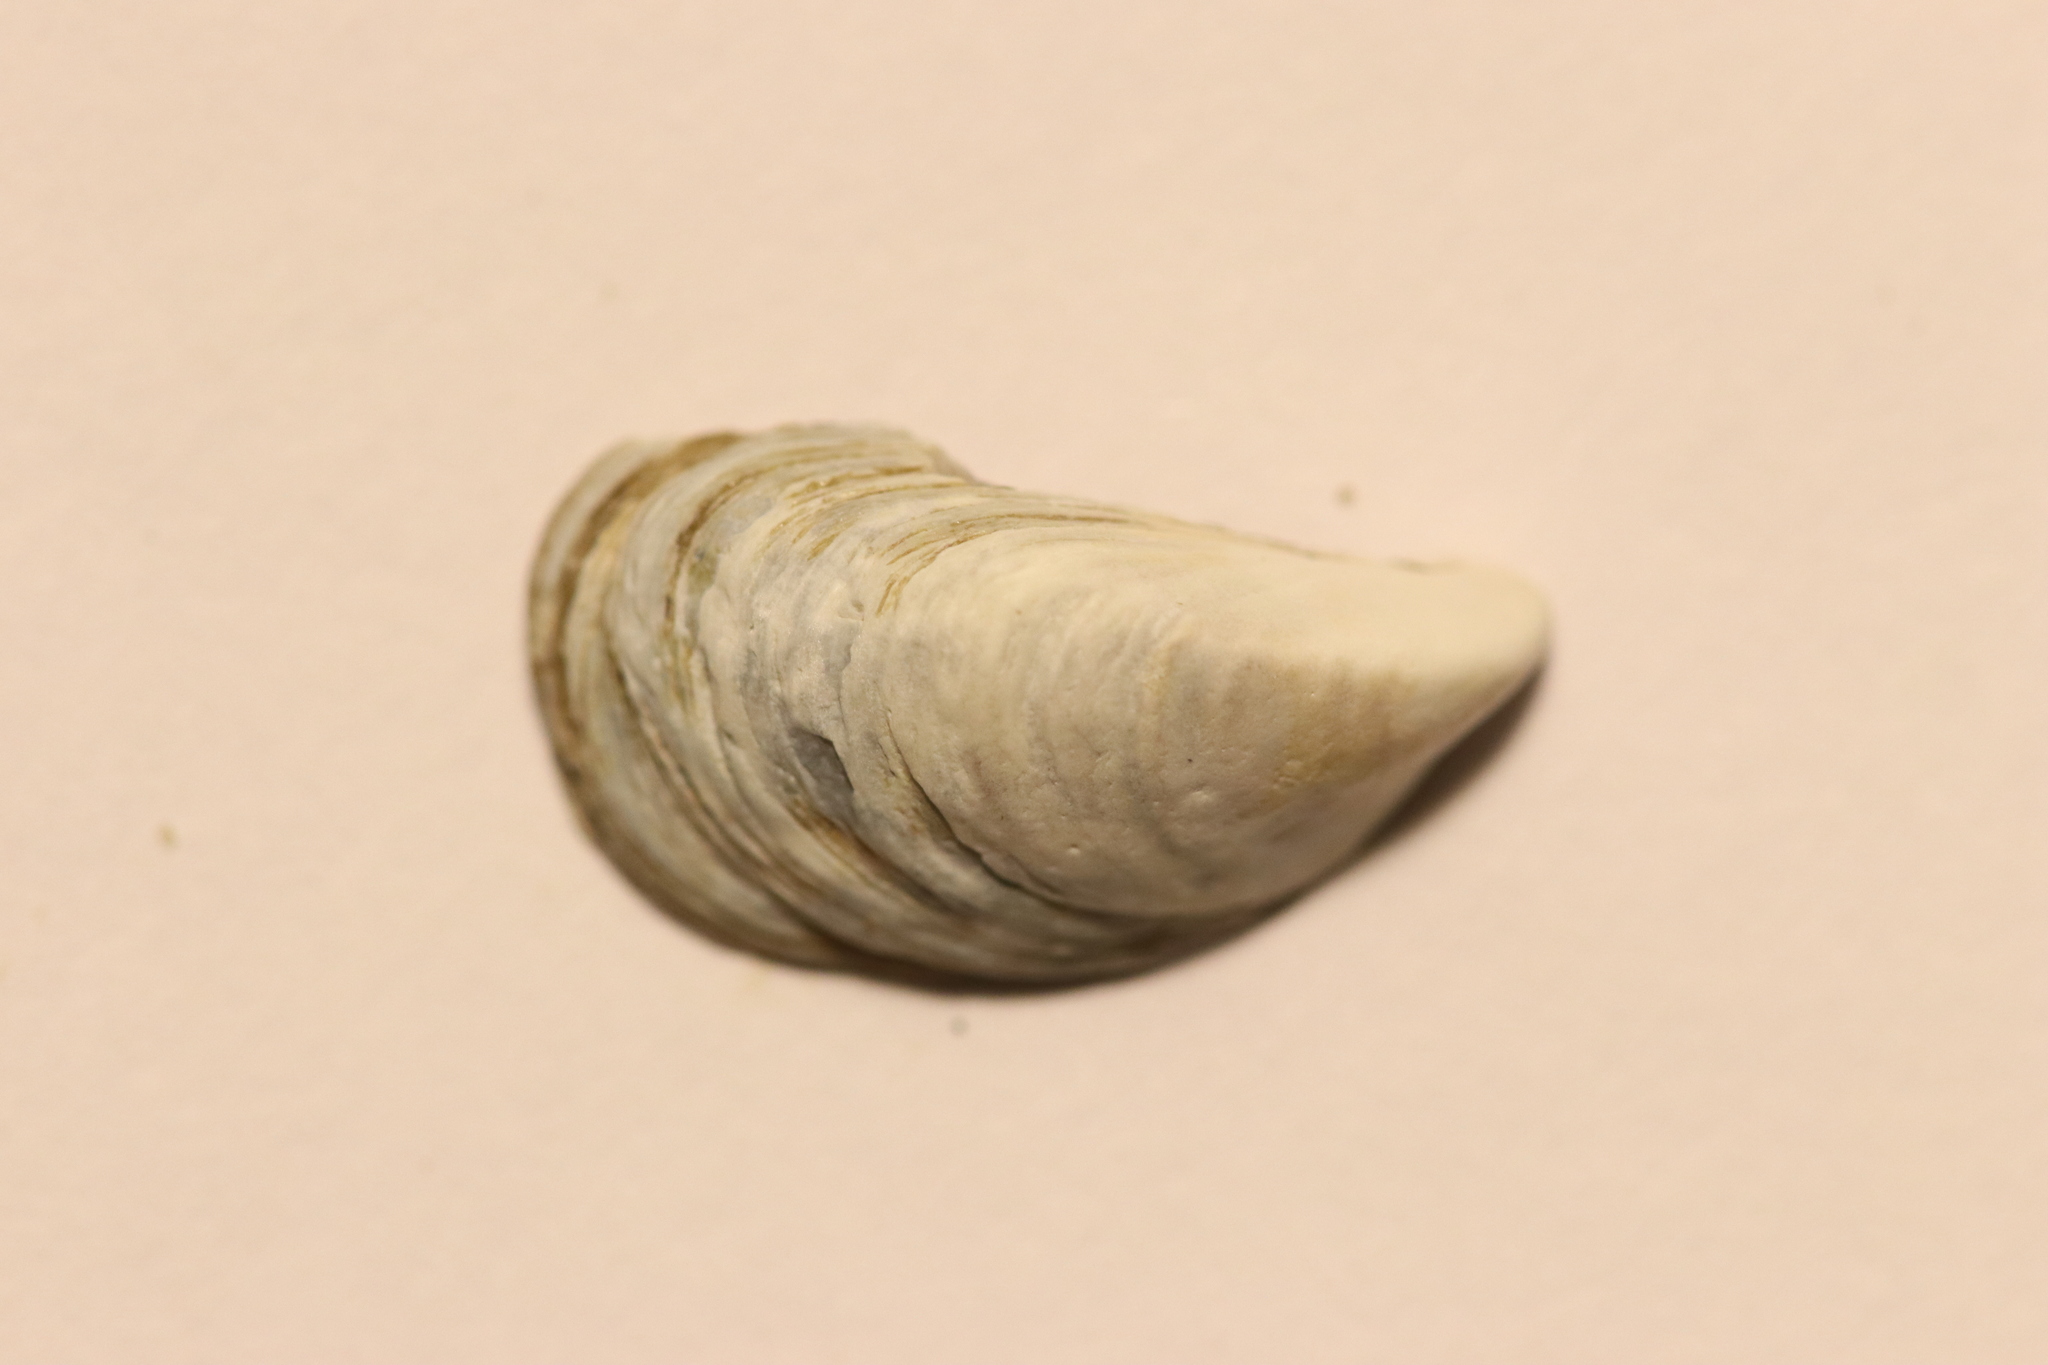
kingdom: Animalia
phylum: Mollusca
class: Bivalvia
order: Myida
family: Dreissenidae
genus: Dreissena
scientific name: Dreissena bugensis
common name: Quagga mussel
